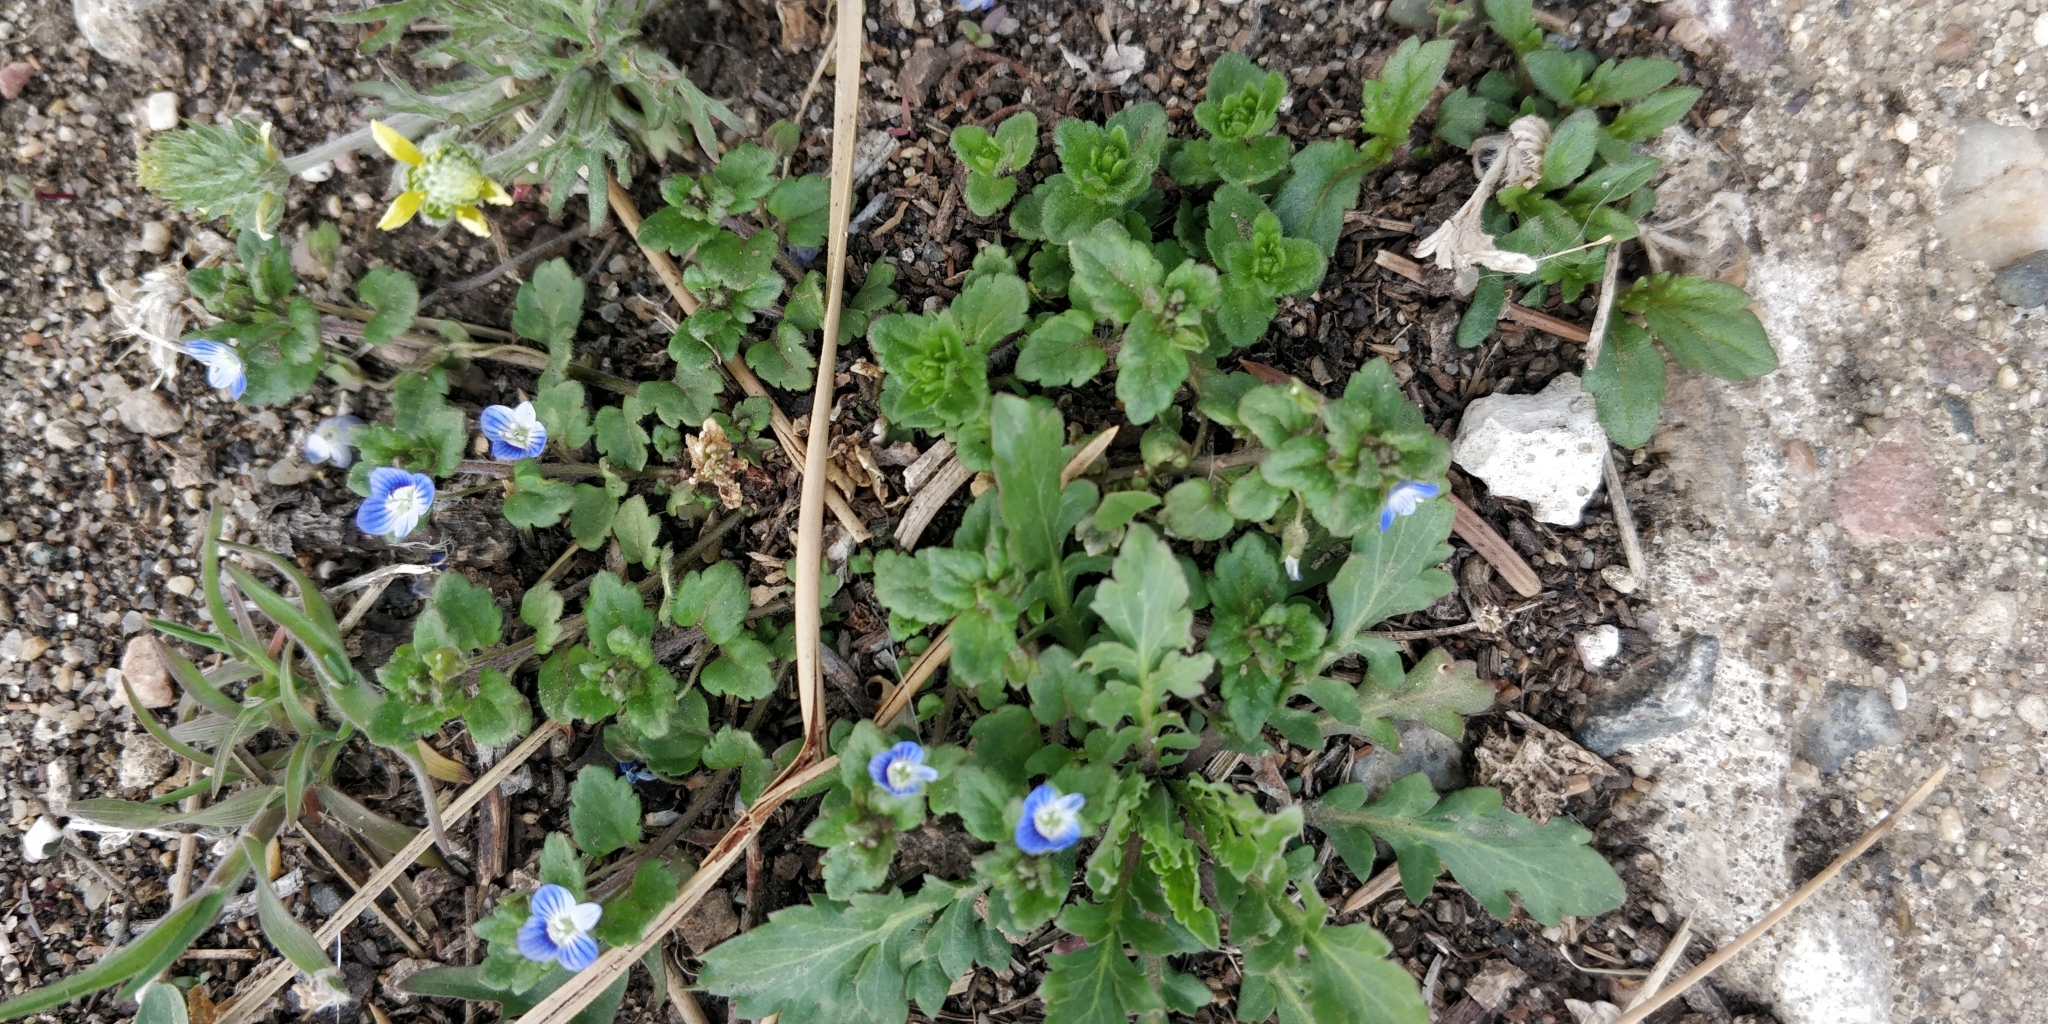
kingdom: Plantae
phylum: Tracheophyta
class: Magnoliopsida
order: Lamiales
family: Plantaginaceae
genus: Veronica
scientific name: Veronica polita
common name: Grey field-speedwell
